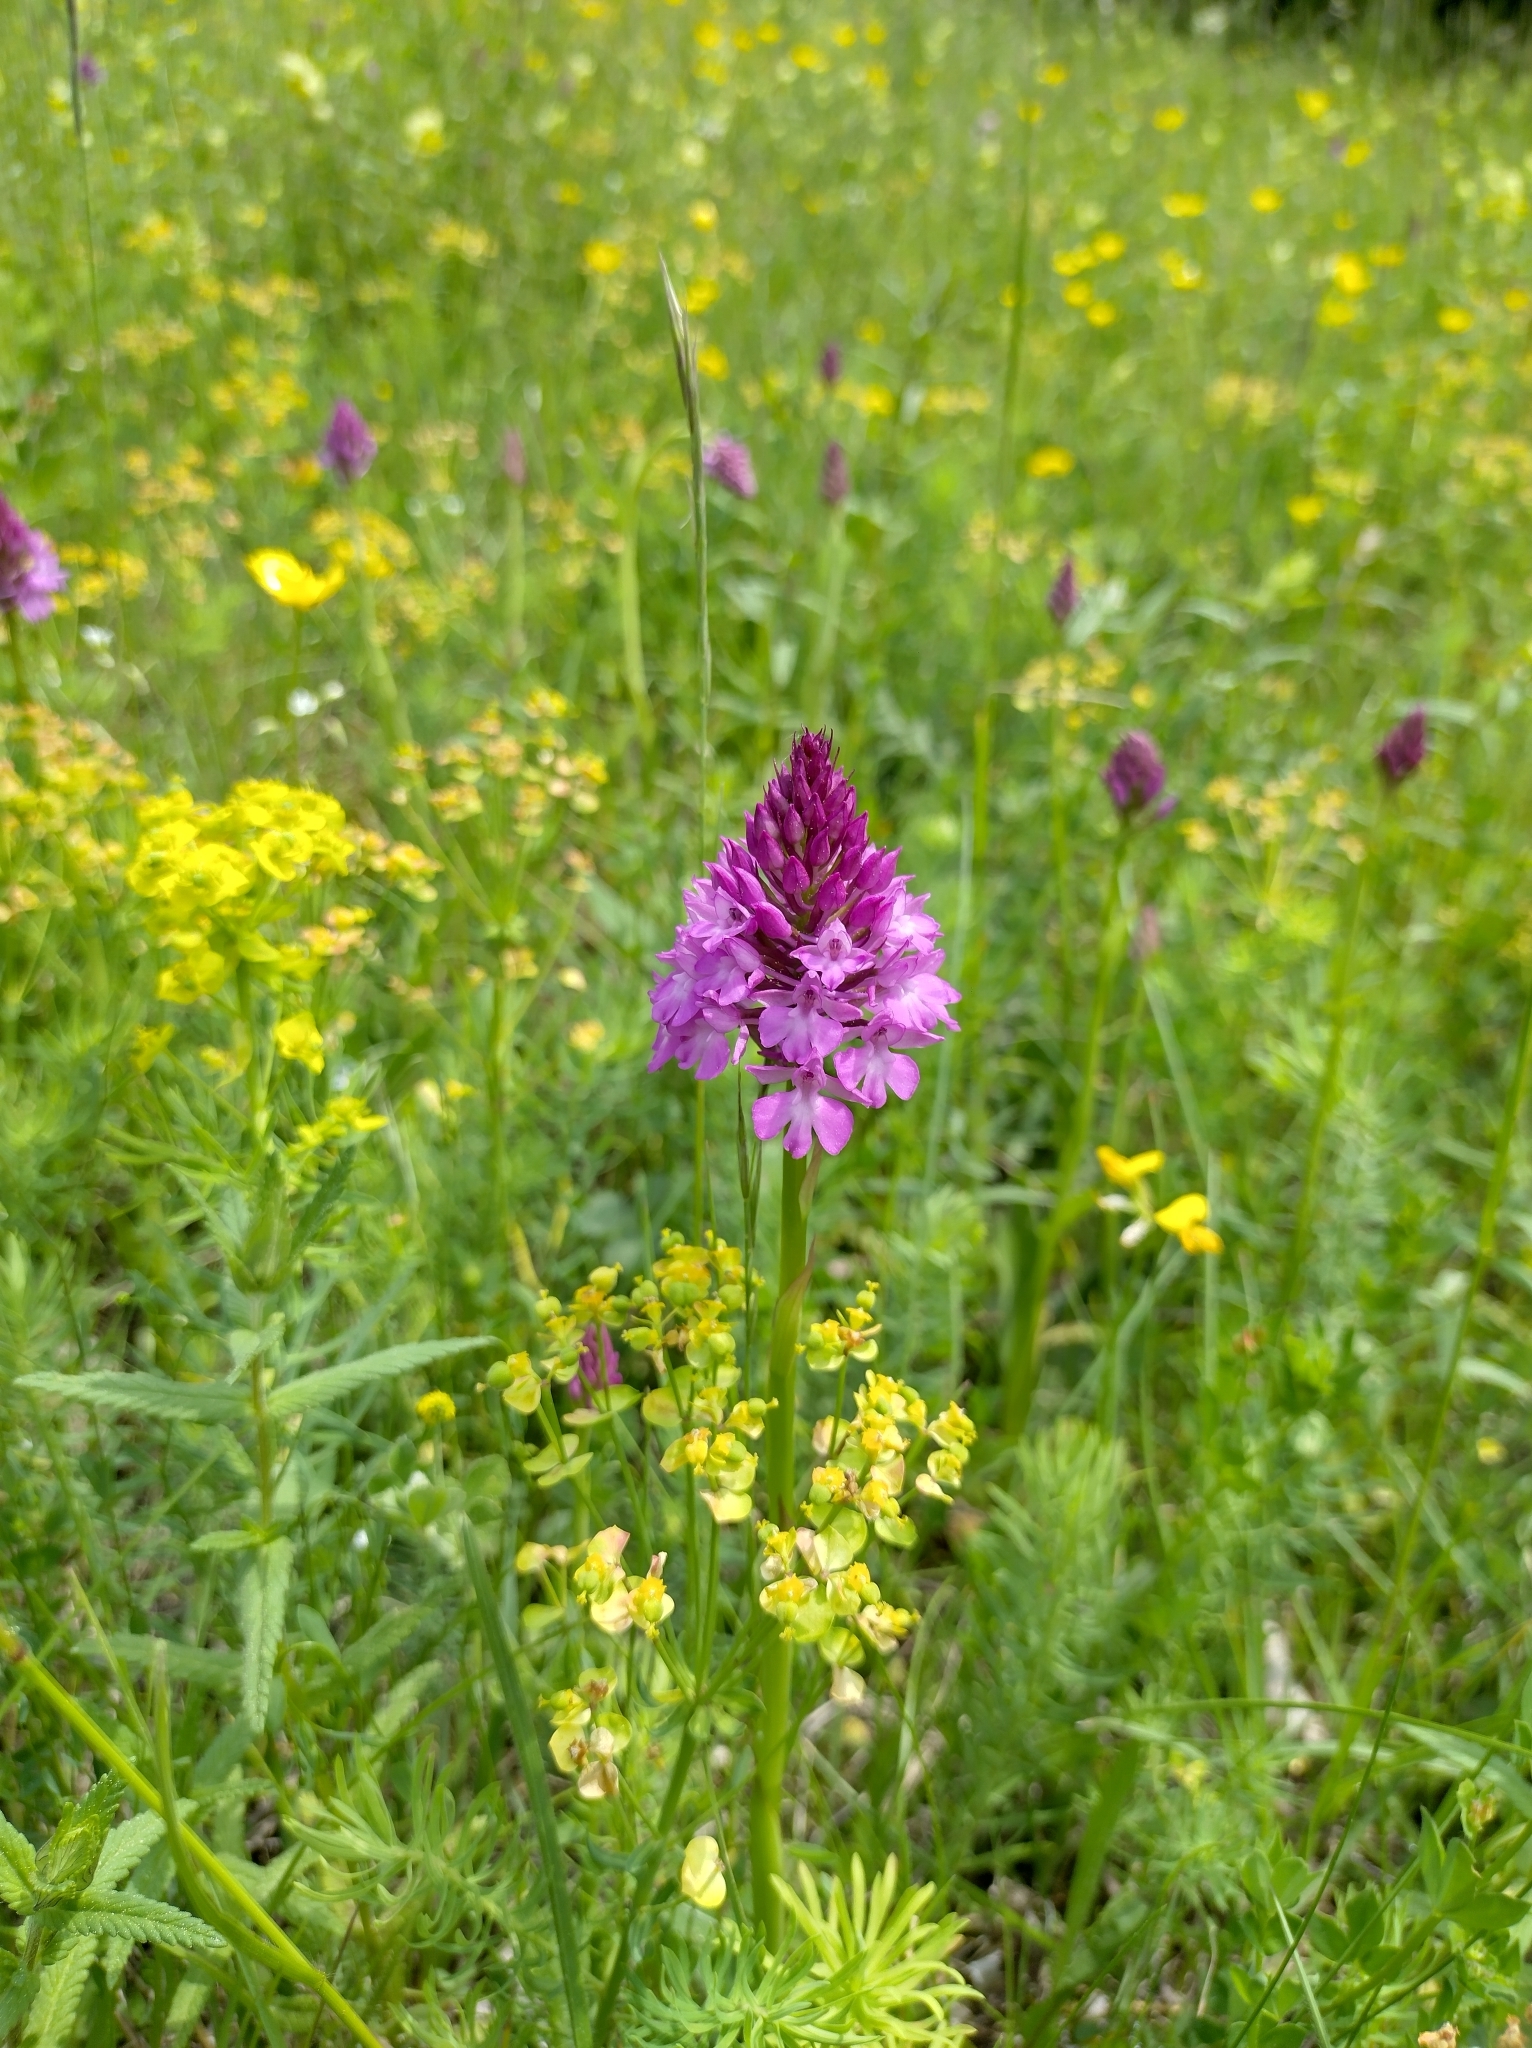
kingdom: Plantae
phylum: Tracheophyta
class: Liliopsida
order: Asparagales
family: Orchidaceae
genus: Anacamptis
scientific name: Anacamptis pyramidalis
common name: Pyramidal orchid
